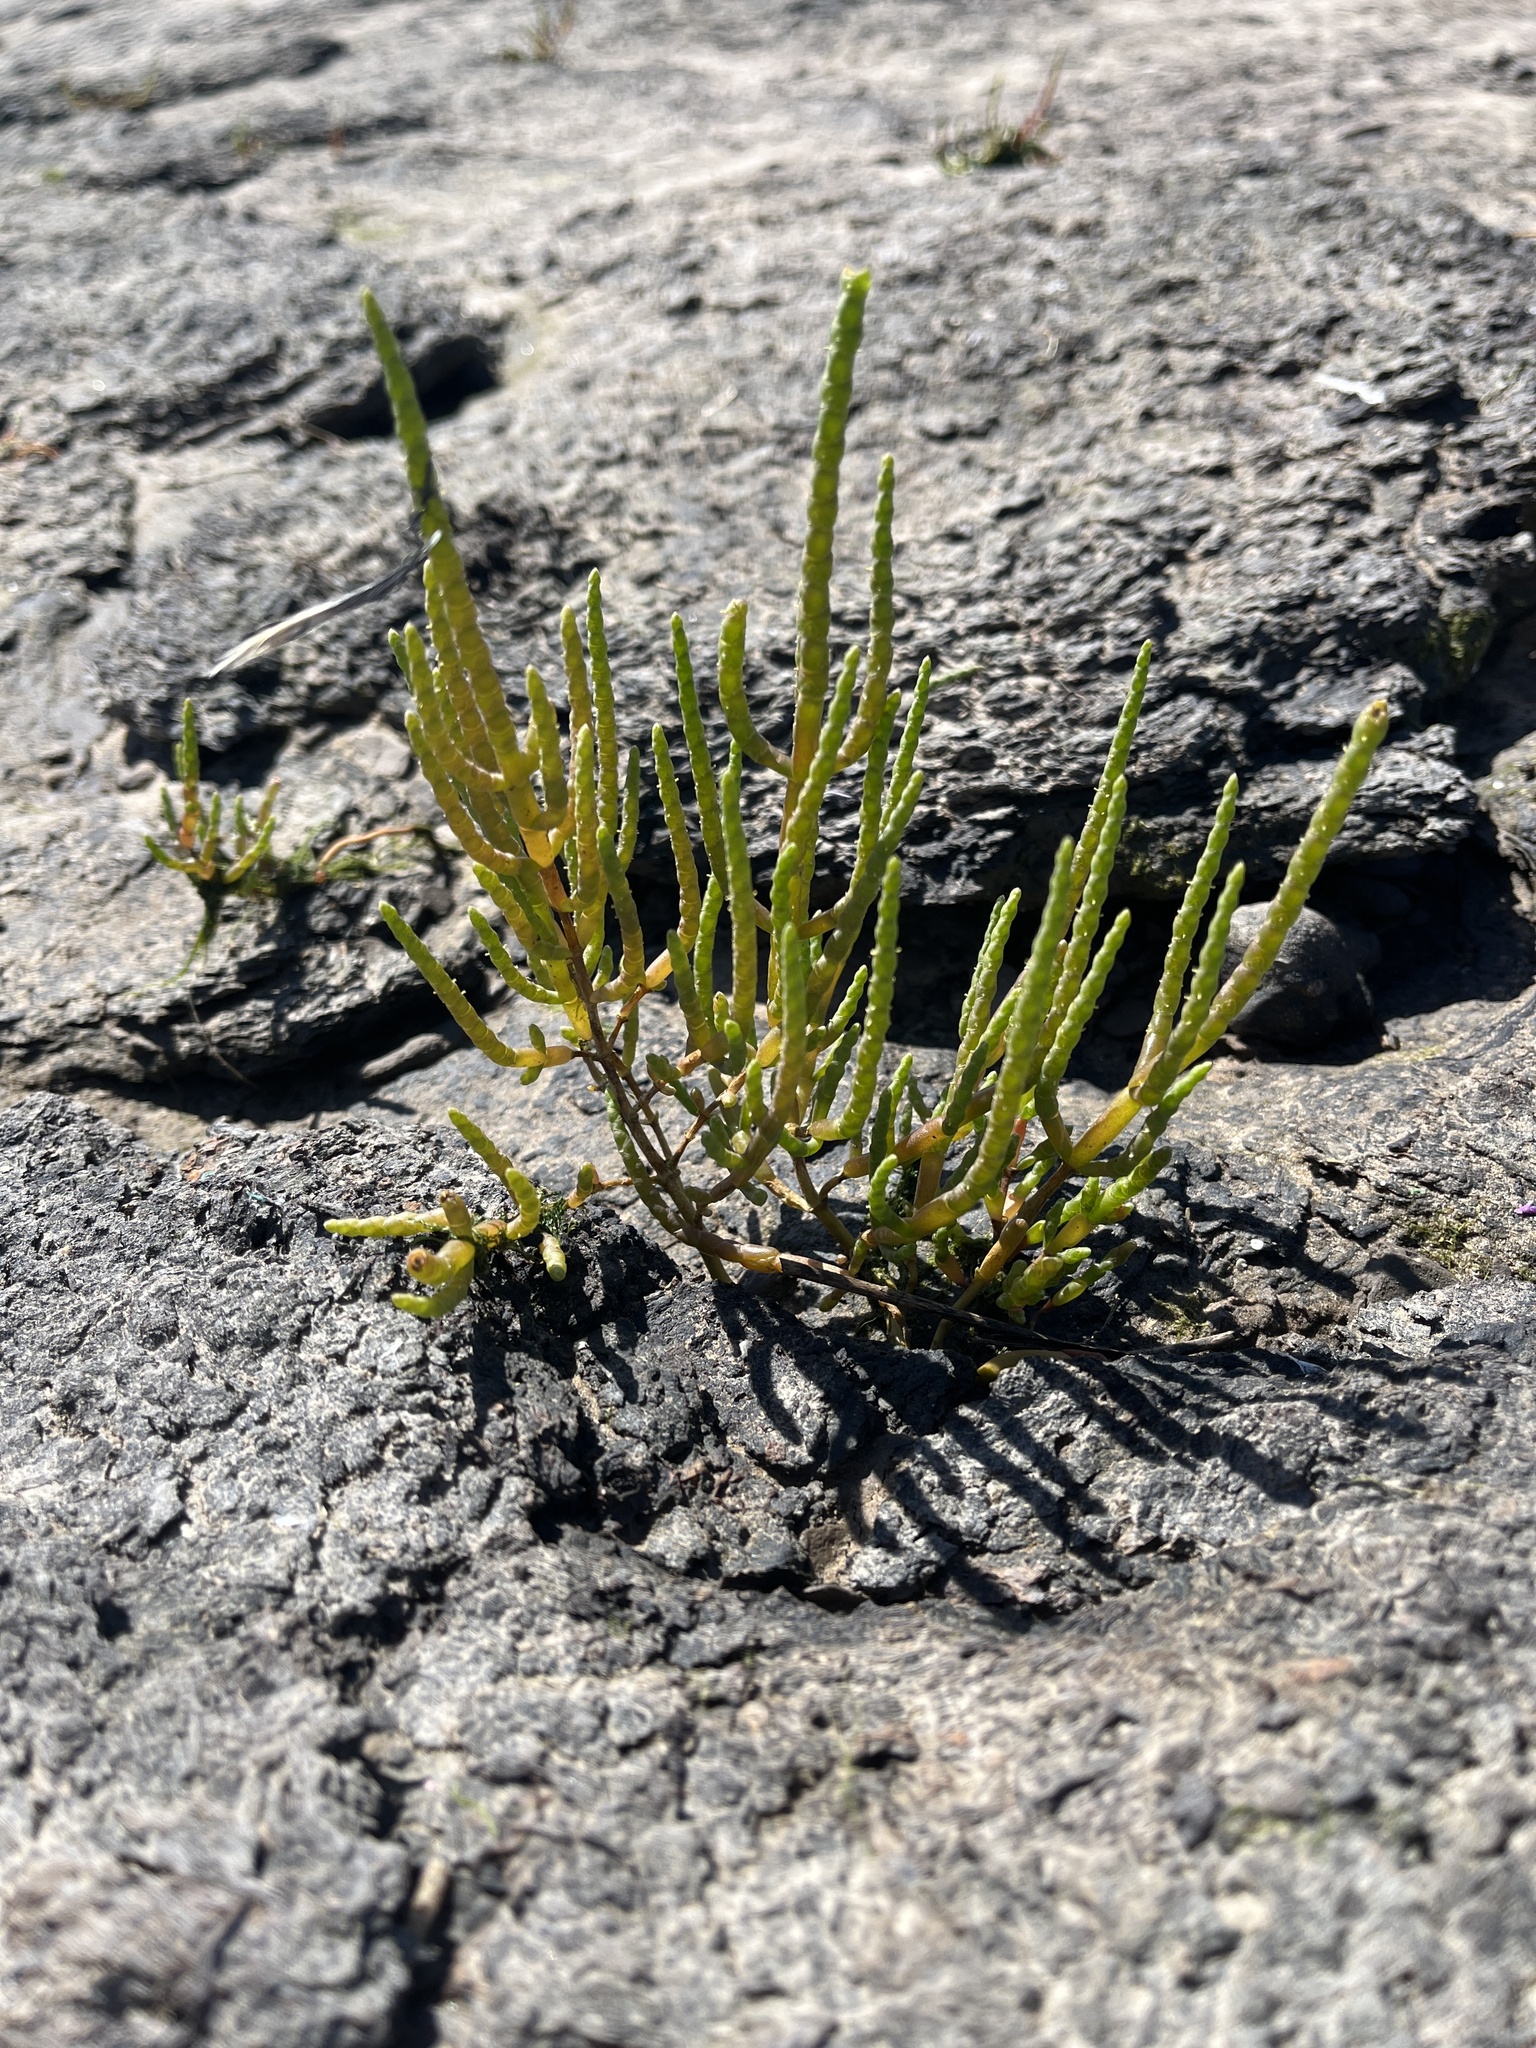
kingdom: Plantae
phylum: Tracheophyta
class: Magnoliopsida
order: Caryophyllales
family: Amaranthaceae
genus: Salicornia
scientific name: Salicornia europaea
